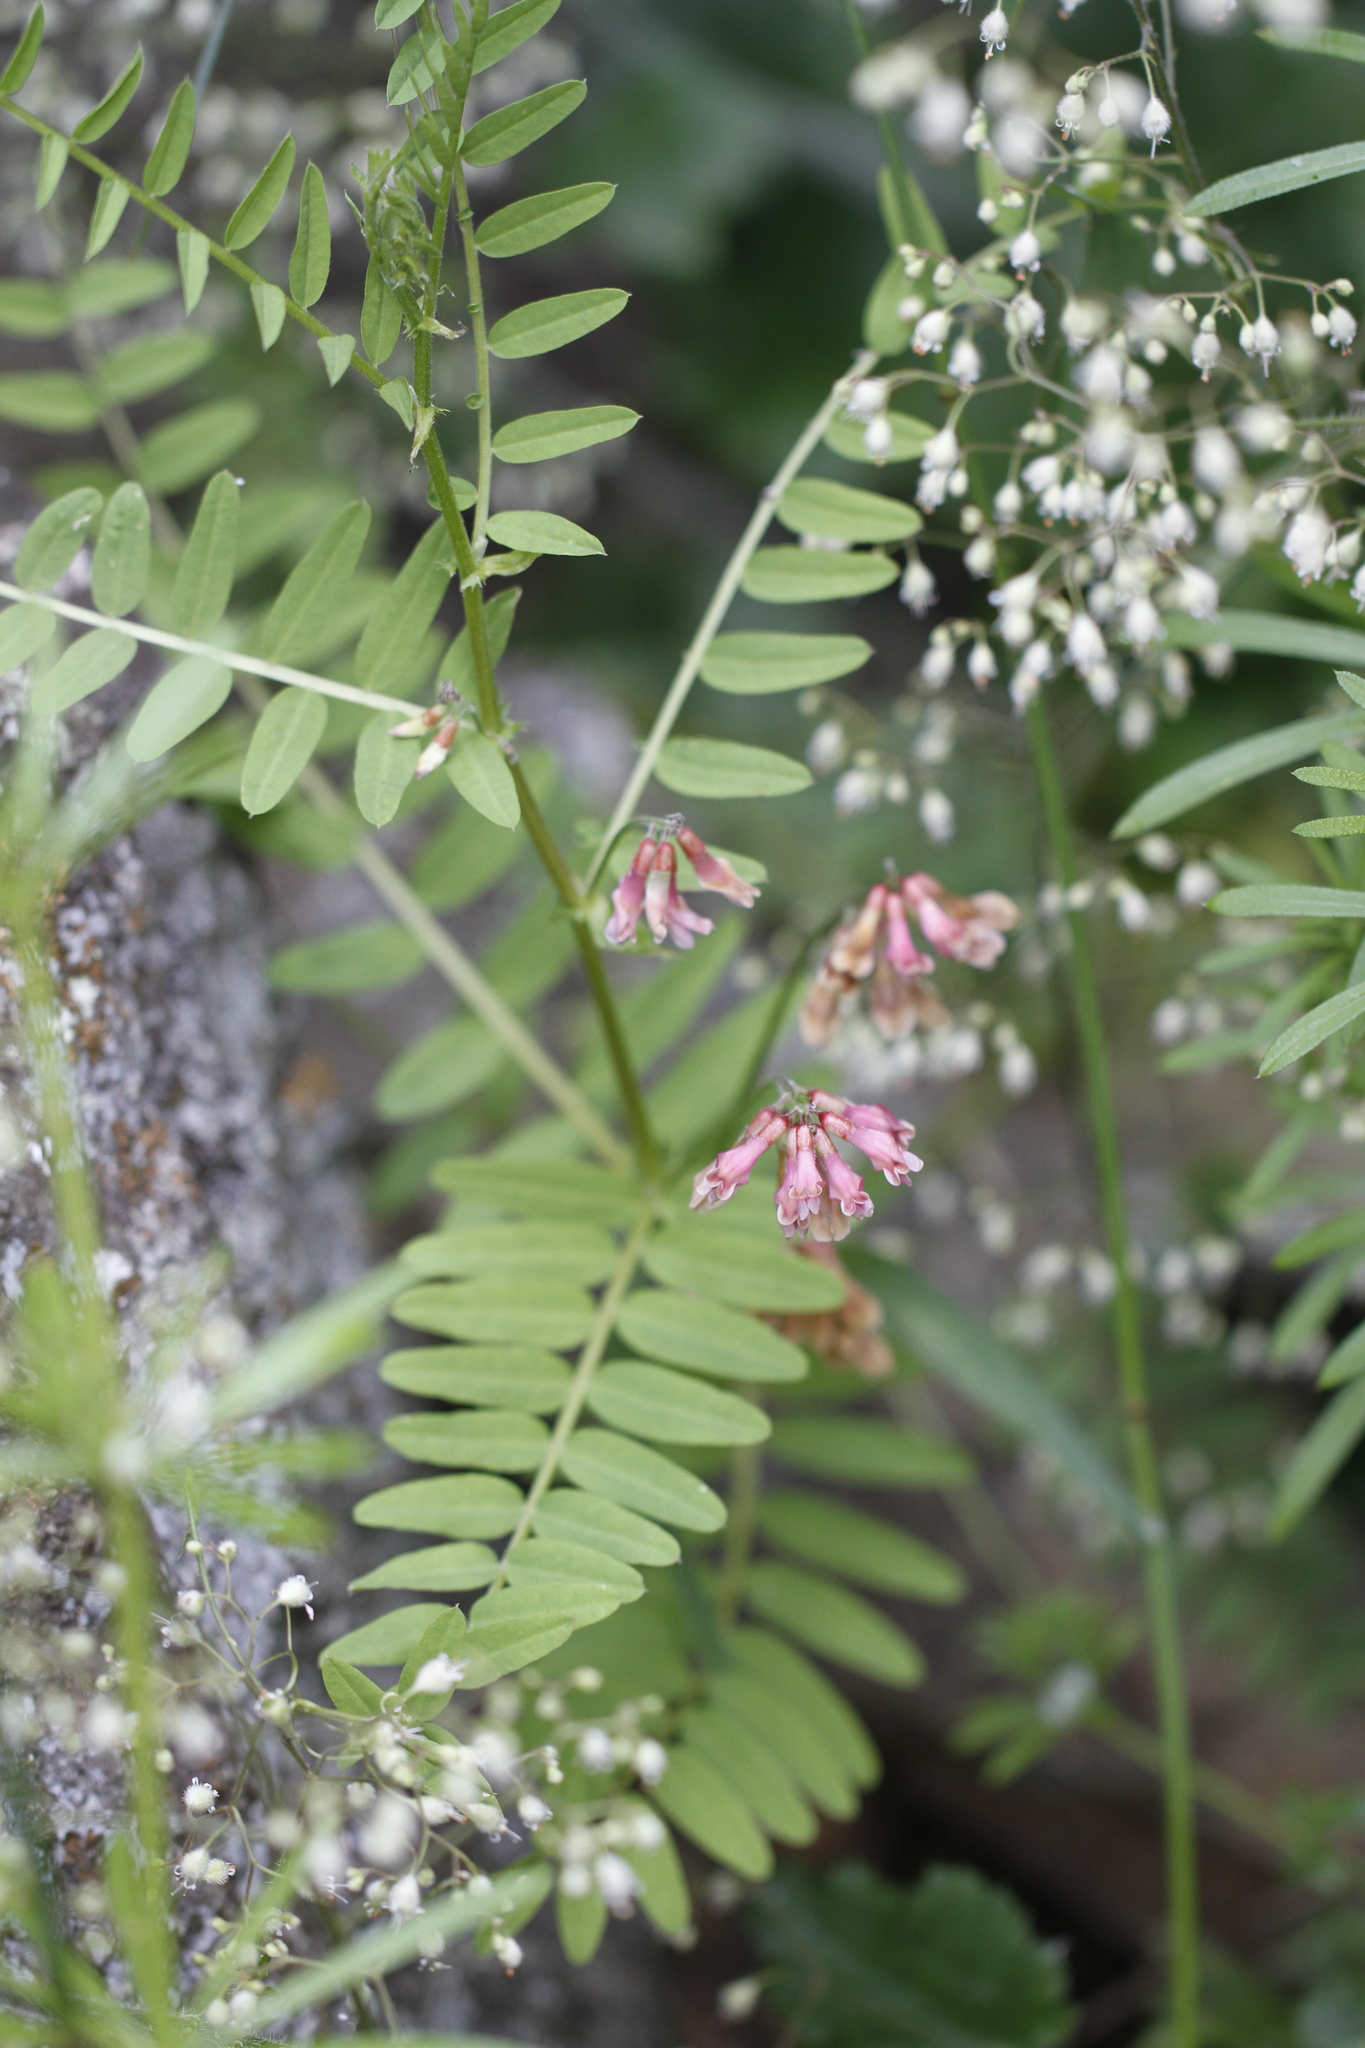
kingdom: Plantae
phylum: Tracheophyta
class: Magnoliopsida
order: Fabales
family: Fabaceae
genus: Vicia
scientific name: Vicia
